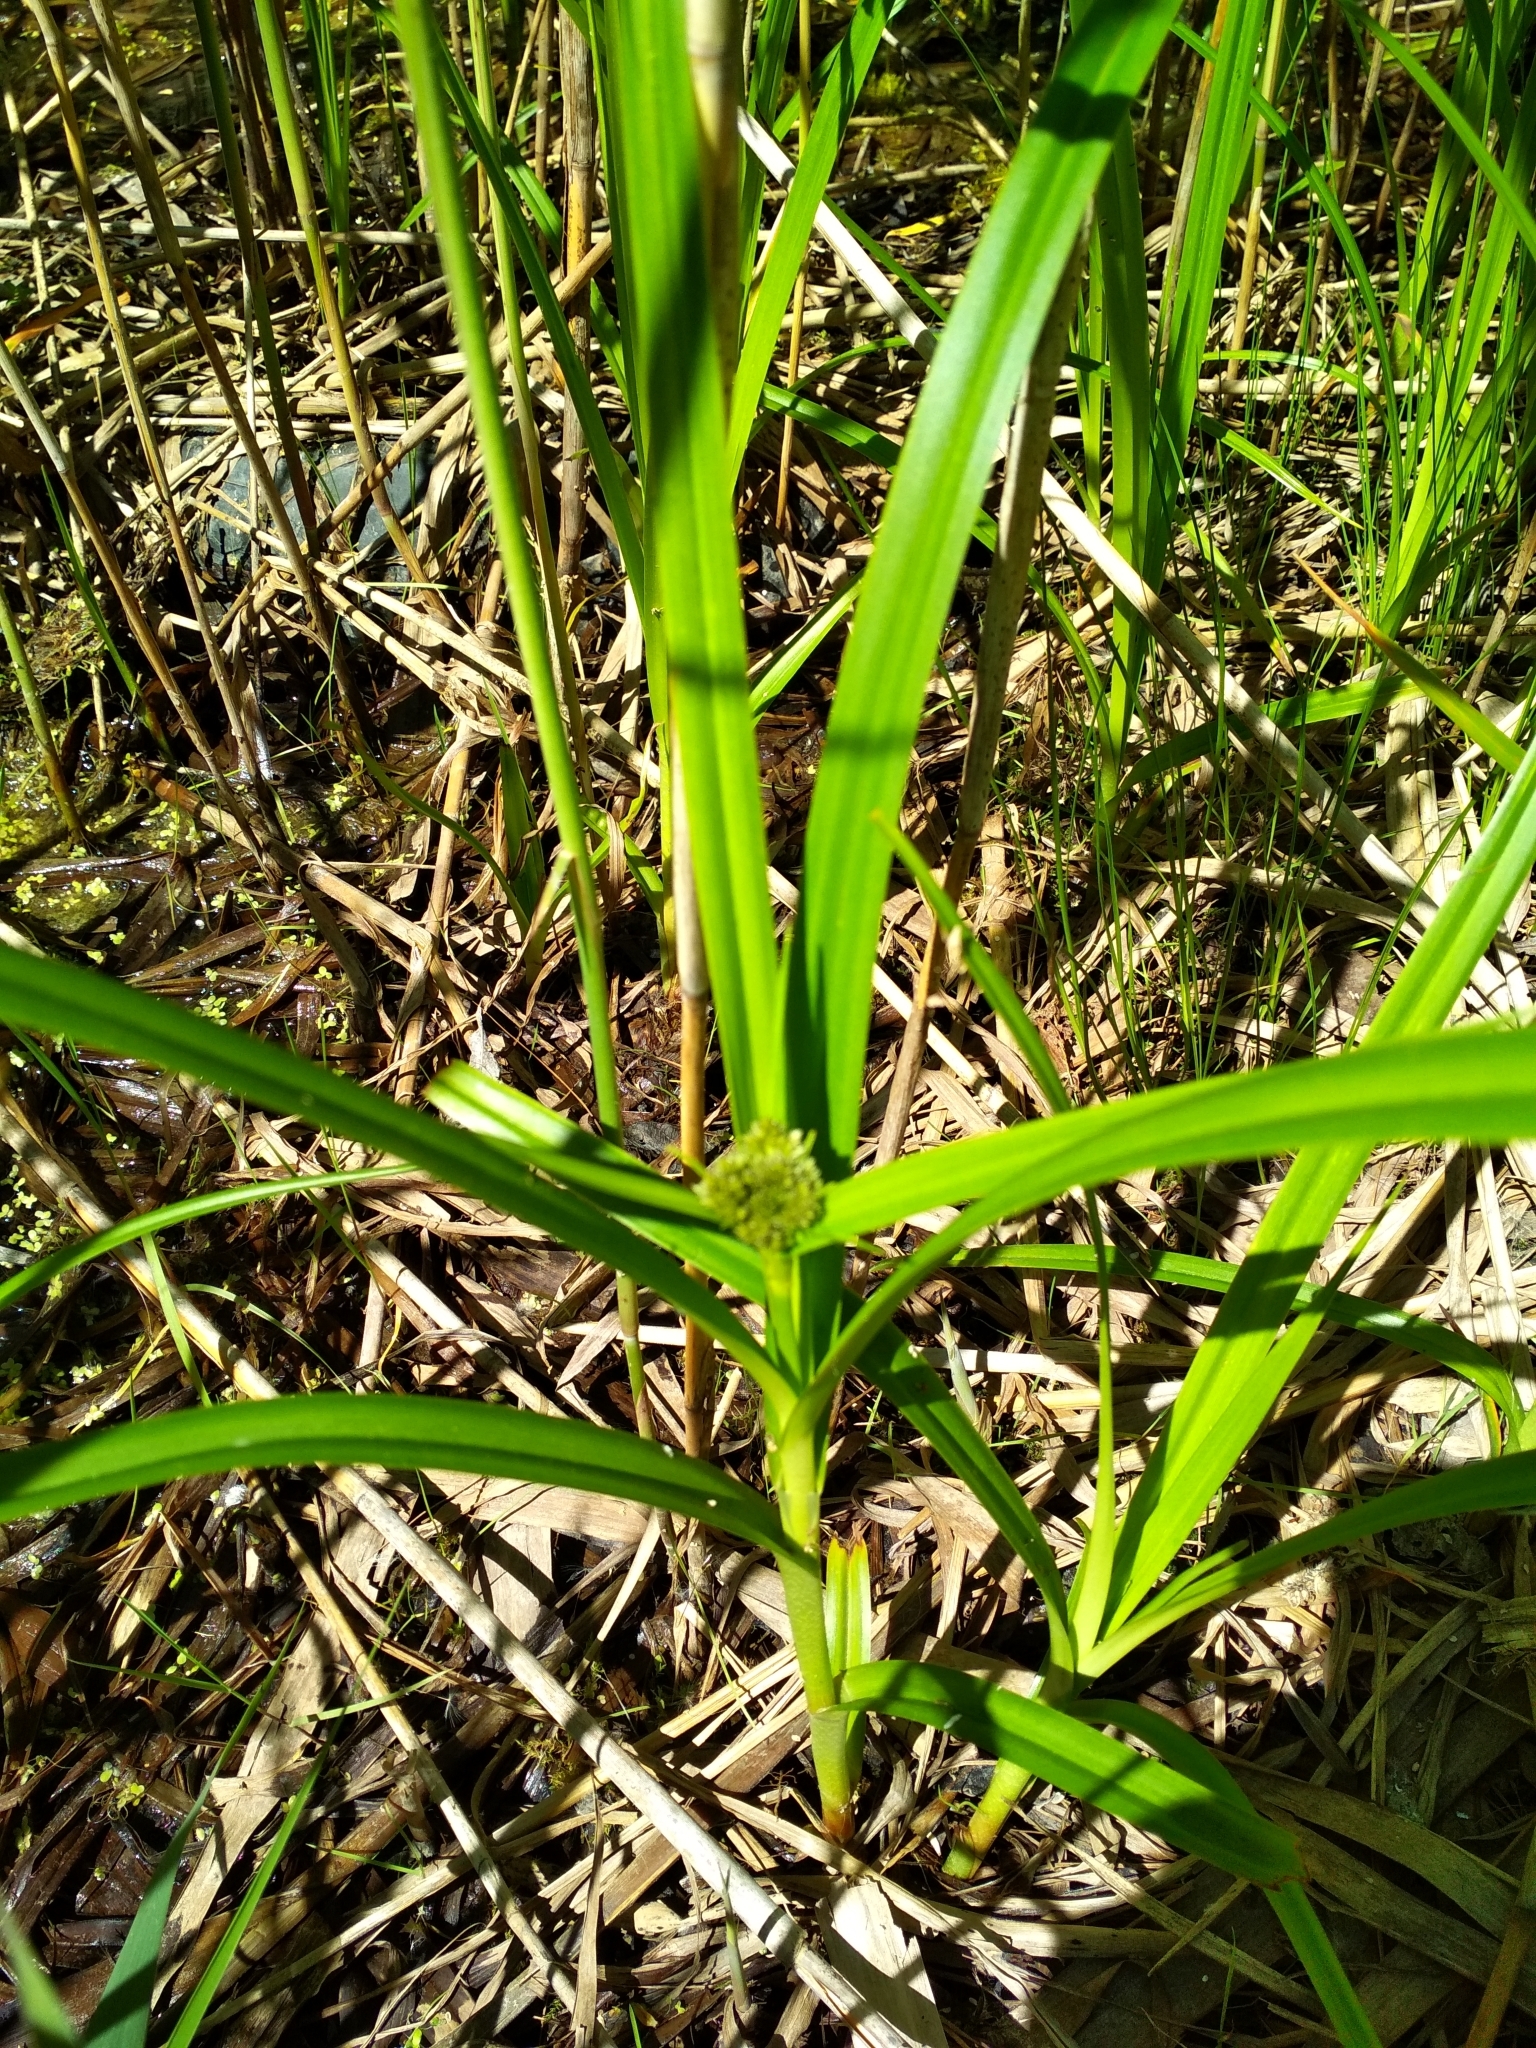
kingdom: Plantae
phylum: Tracheophyta
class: Liliopsida
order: Poales
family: Cyperaceae
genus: Scirpus
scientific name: Scirpus sylvaticus
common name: Wood club-rush
